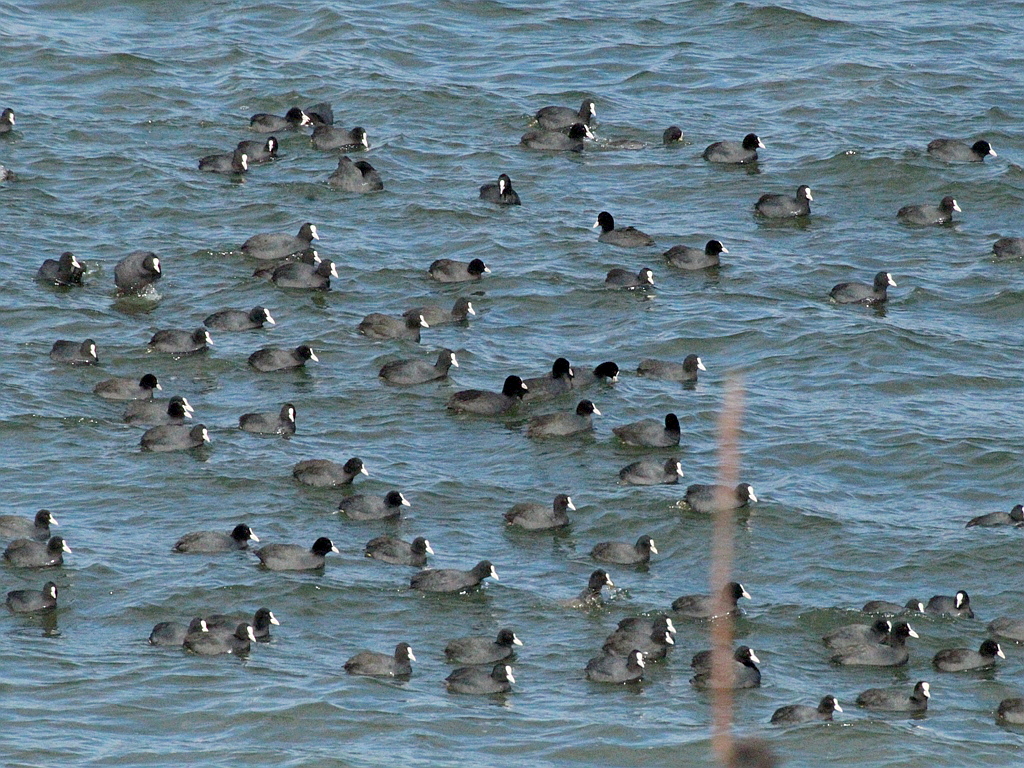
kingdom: Animalia
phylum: Chordata
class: Aves
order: Gruiformes
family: Rallidae
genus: Fulica
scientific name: Fulica atra
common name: Eurasian coot
